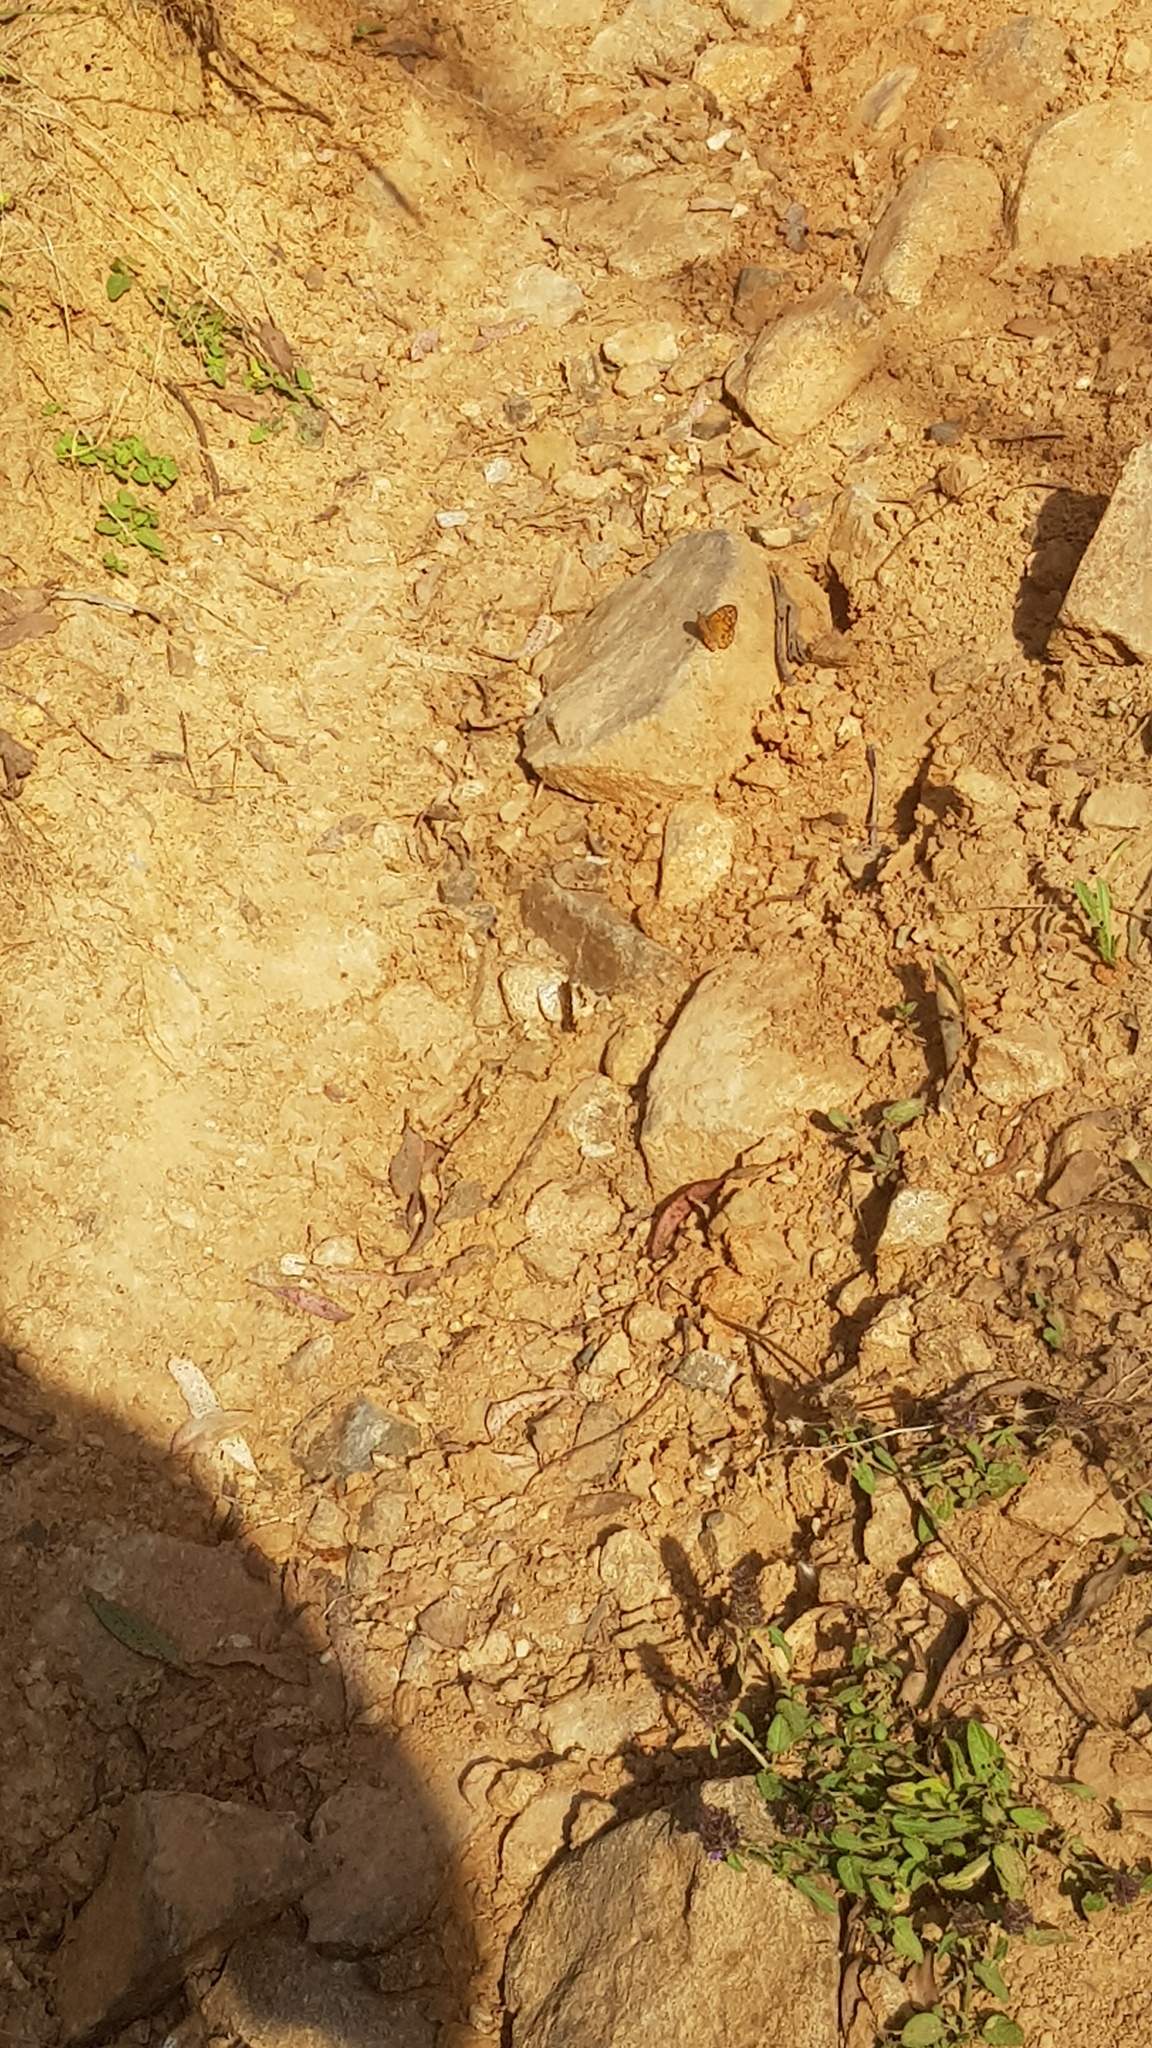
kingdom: Animalia
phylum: Arthropoda
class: Insecta
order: Lepidoptera
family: Nymphalidae
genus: Geitoneura
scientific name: Geitoneura acantha
